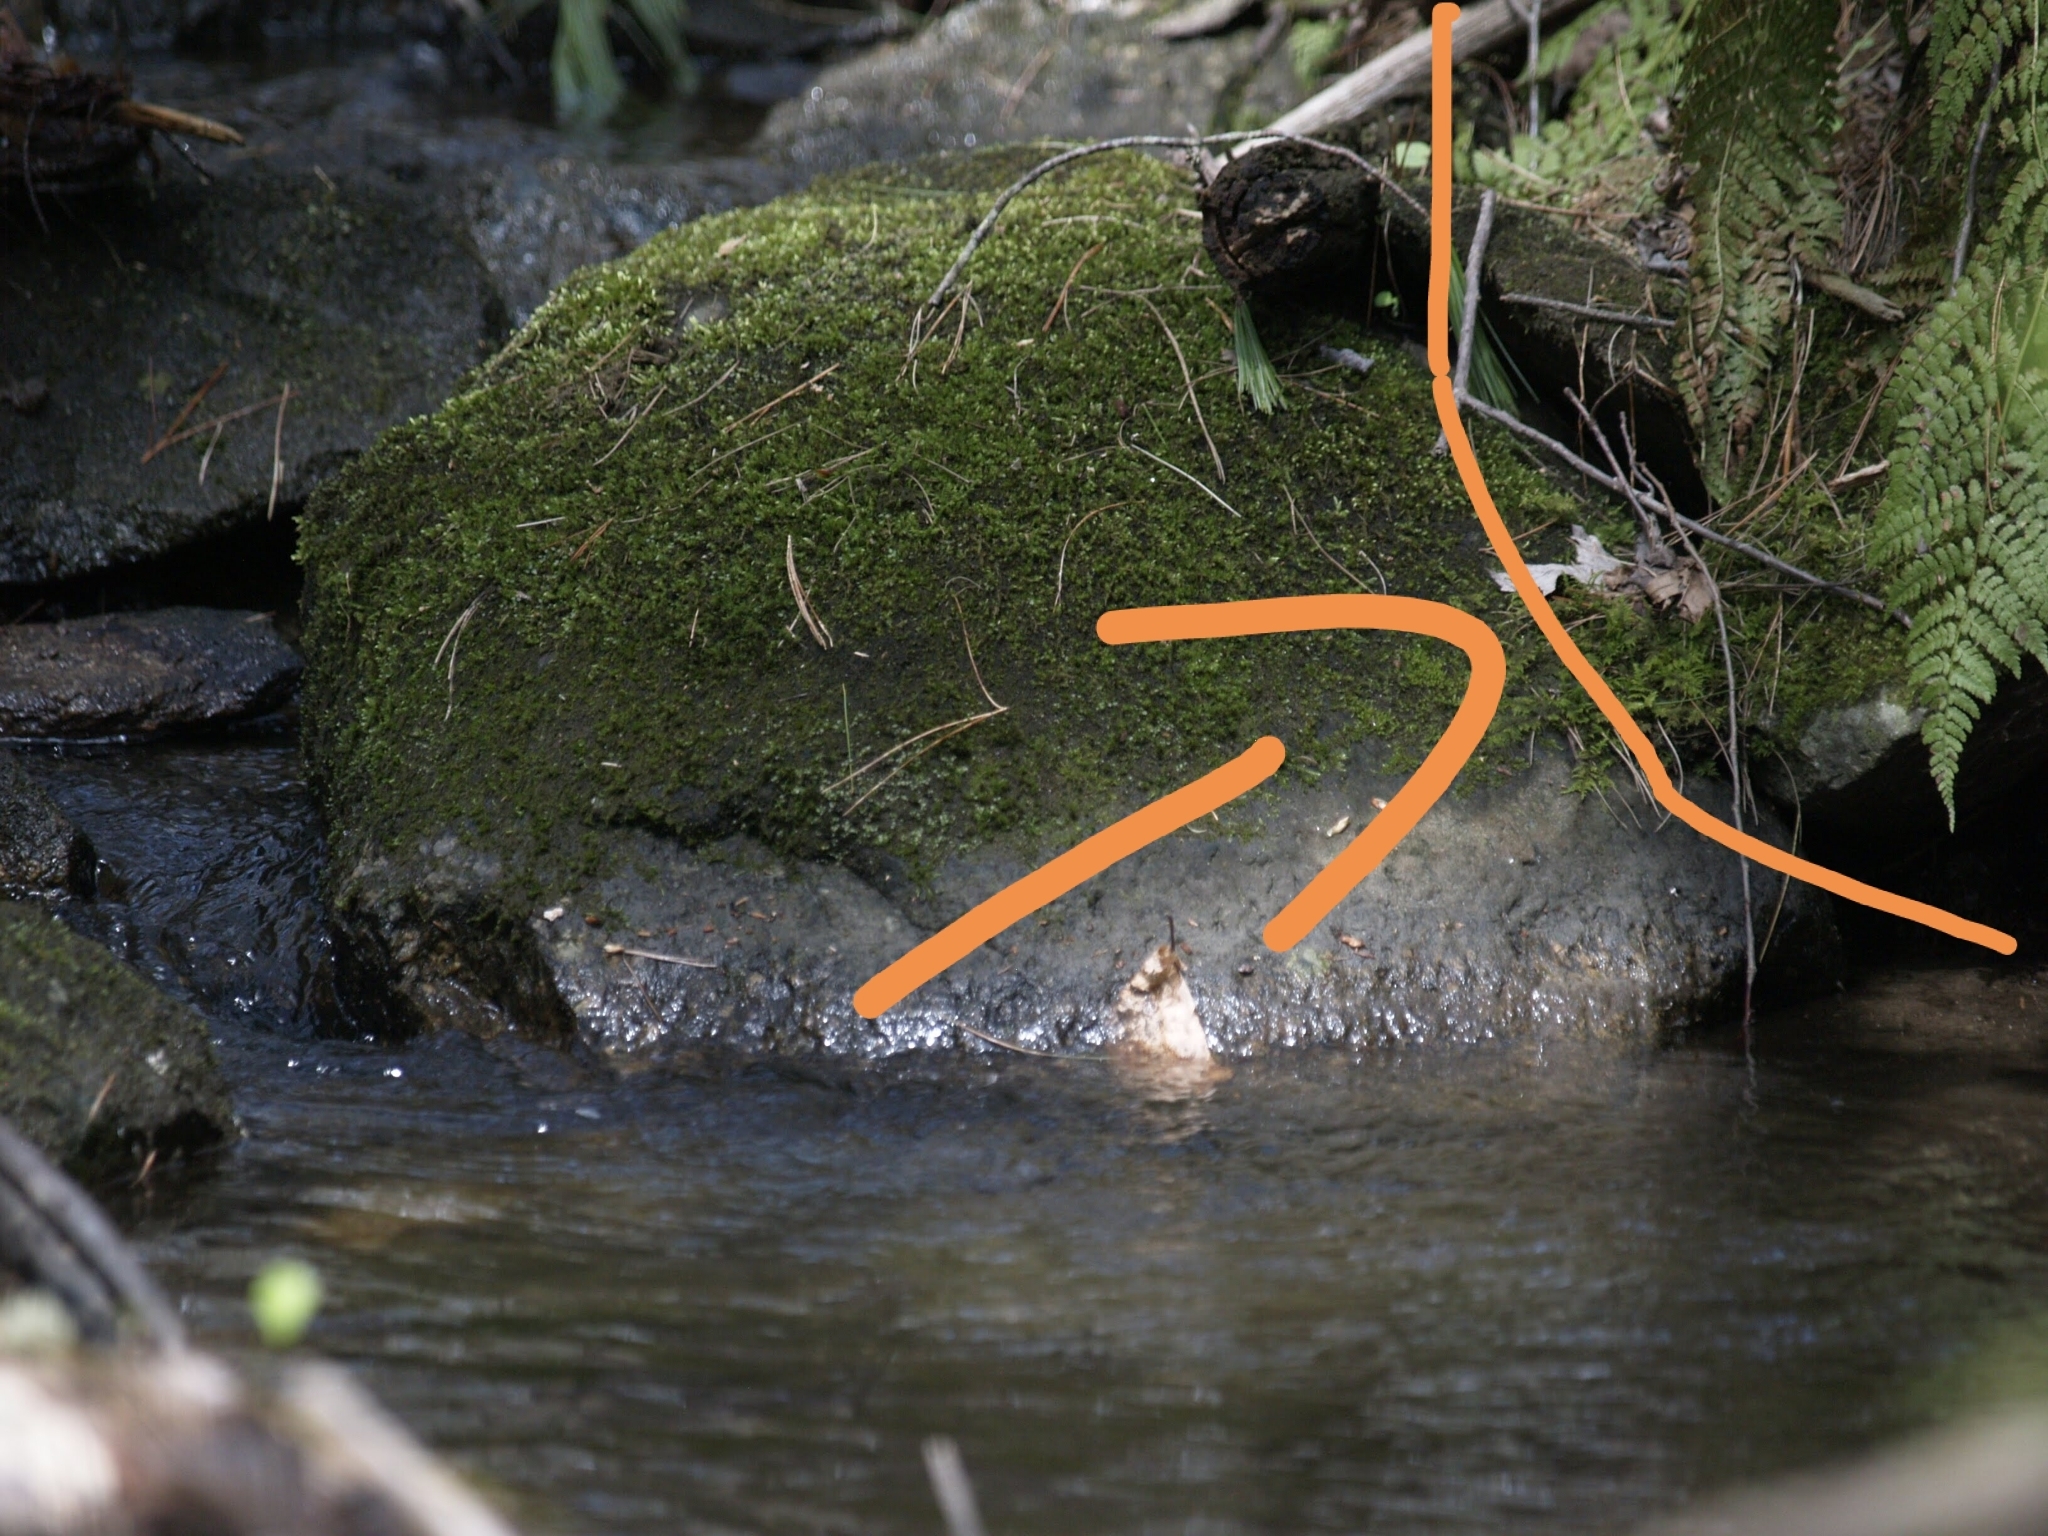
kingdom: Plantae
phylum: Tracheophyta
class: Polypodiopsida
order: Polypodiales
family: Dryopteridaceae
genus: Dryopteris
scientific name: Dryopteris intermedia
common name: Evergreen wood fern
